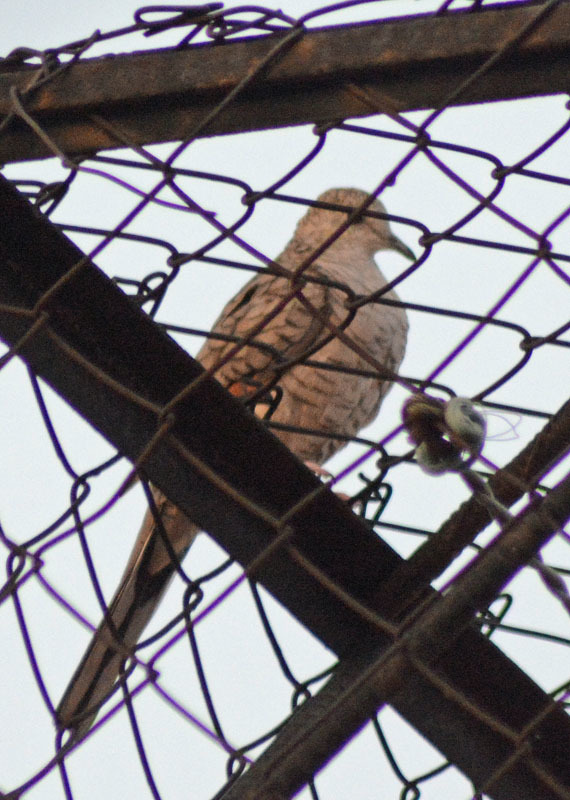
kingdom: Animalia
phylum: Chordata
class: Aves
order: Columbiformes
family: Columbidae
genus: Columbina
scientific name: Columbina inca
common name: Inca dove
